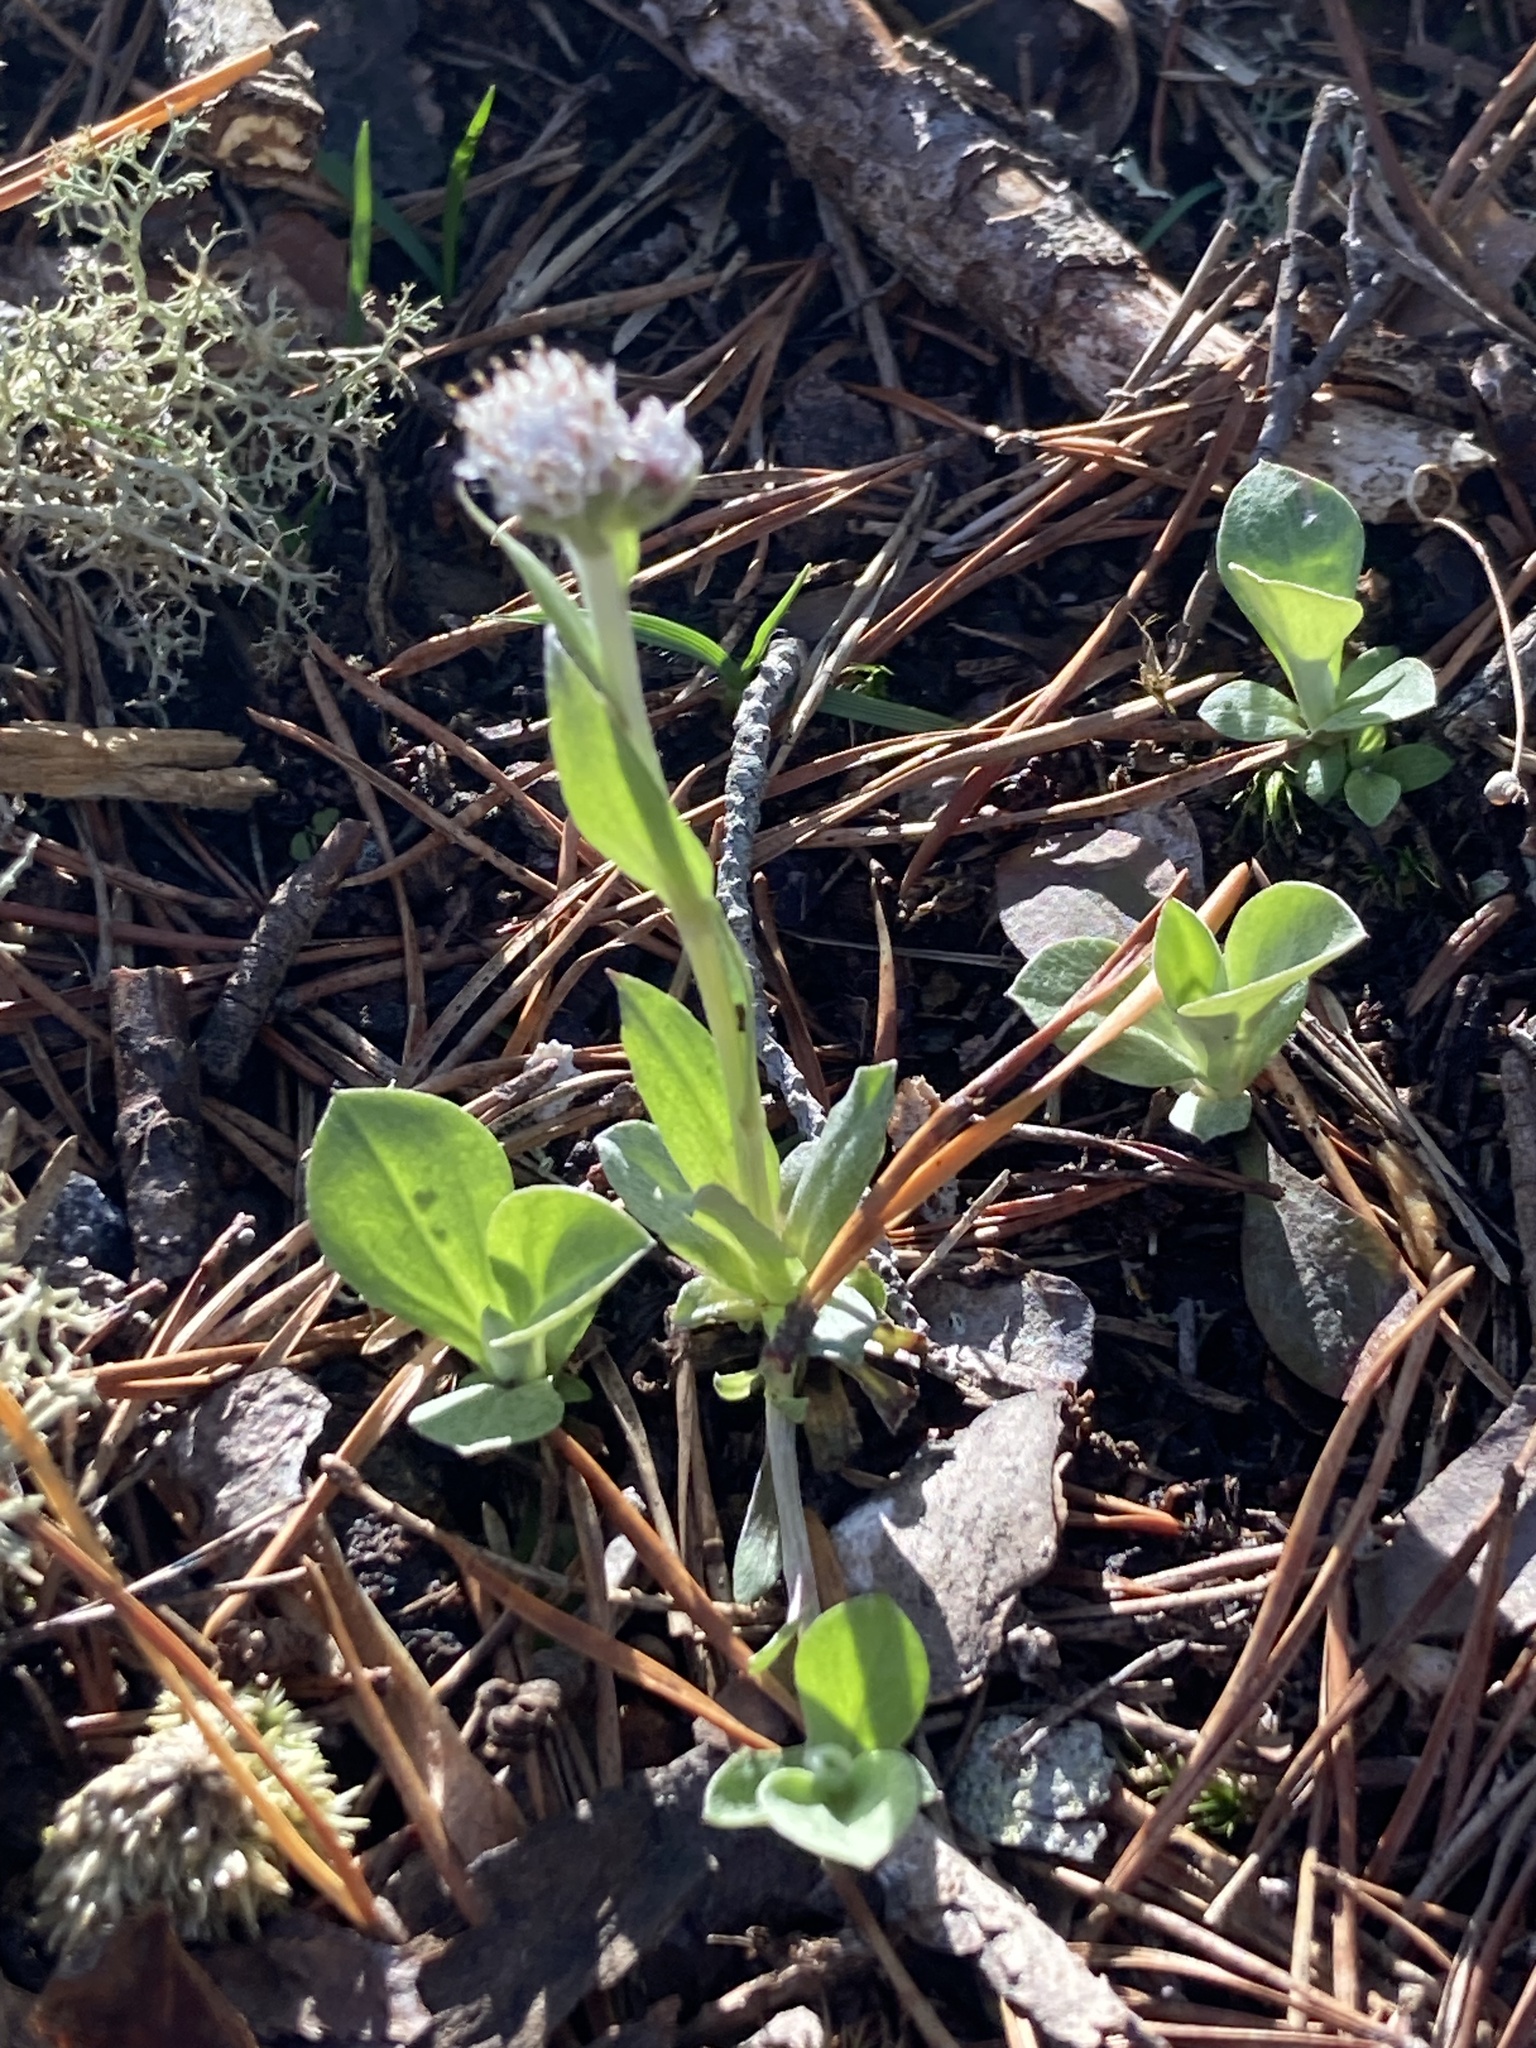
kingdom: Plantae
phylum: Tracheophyta
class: Magnoliopsida
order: Asterales
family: Asteraceae
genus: Antennaria
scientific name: Antennaria solitaria
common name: Single-head pussytoes
